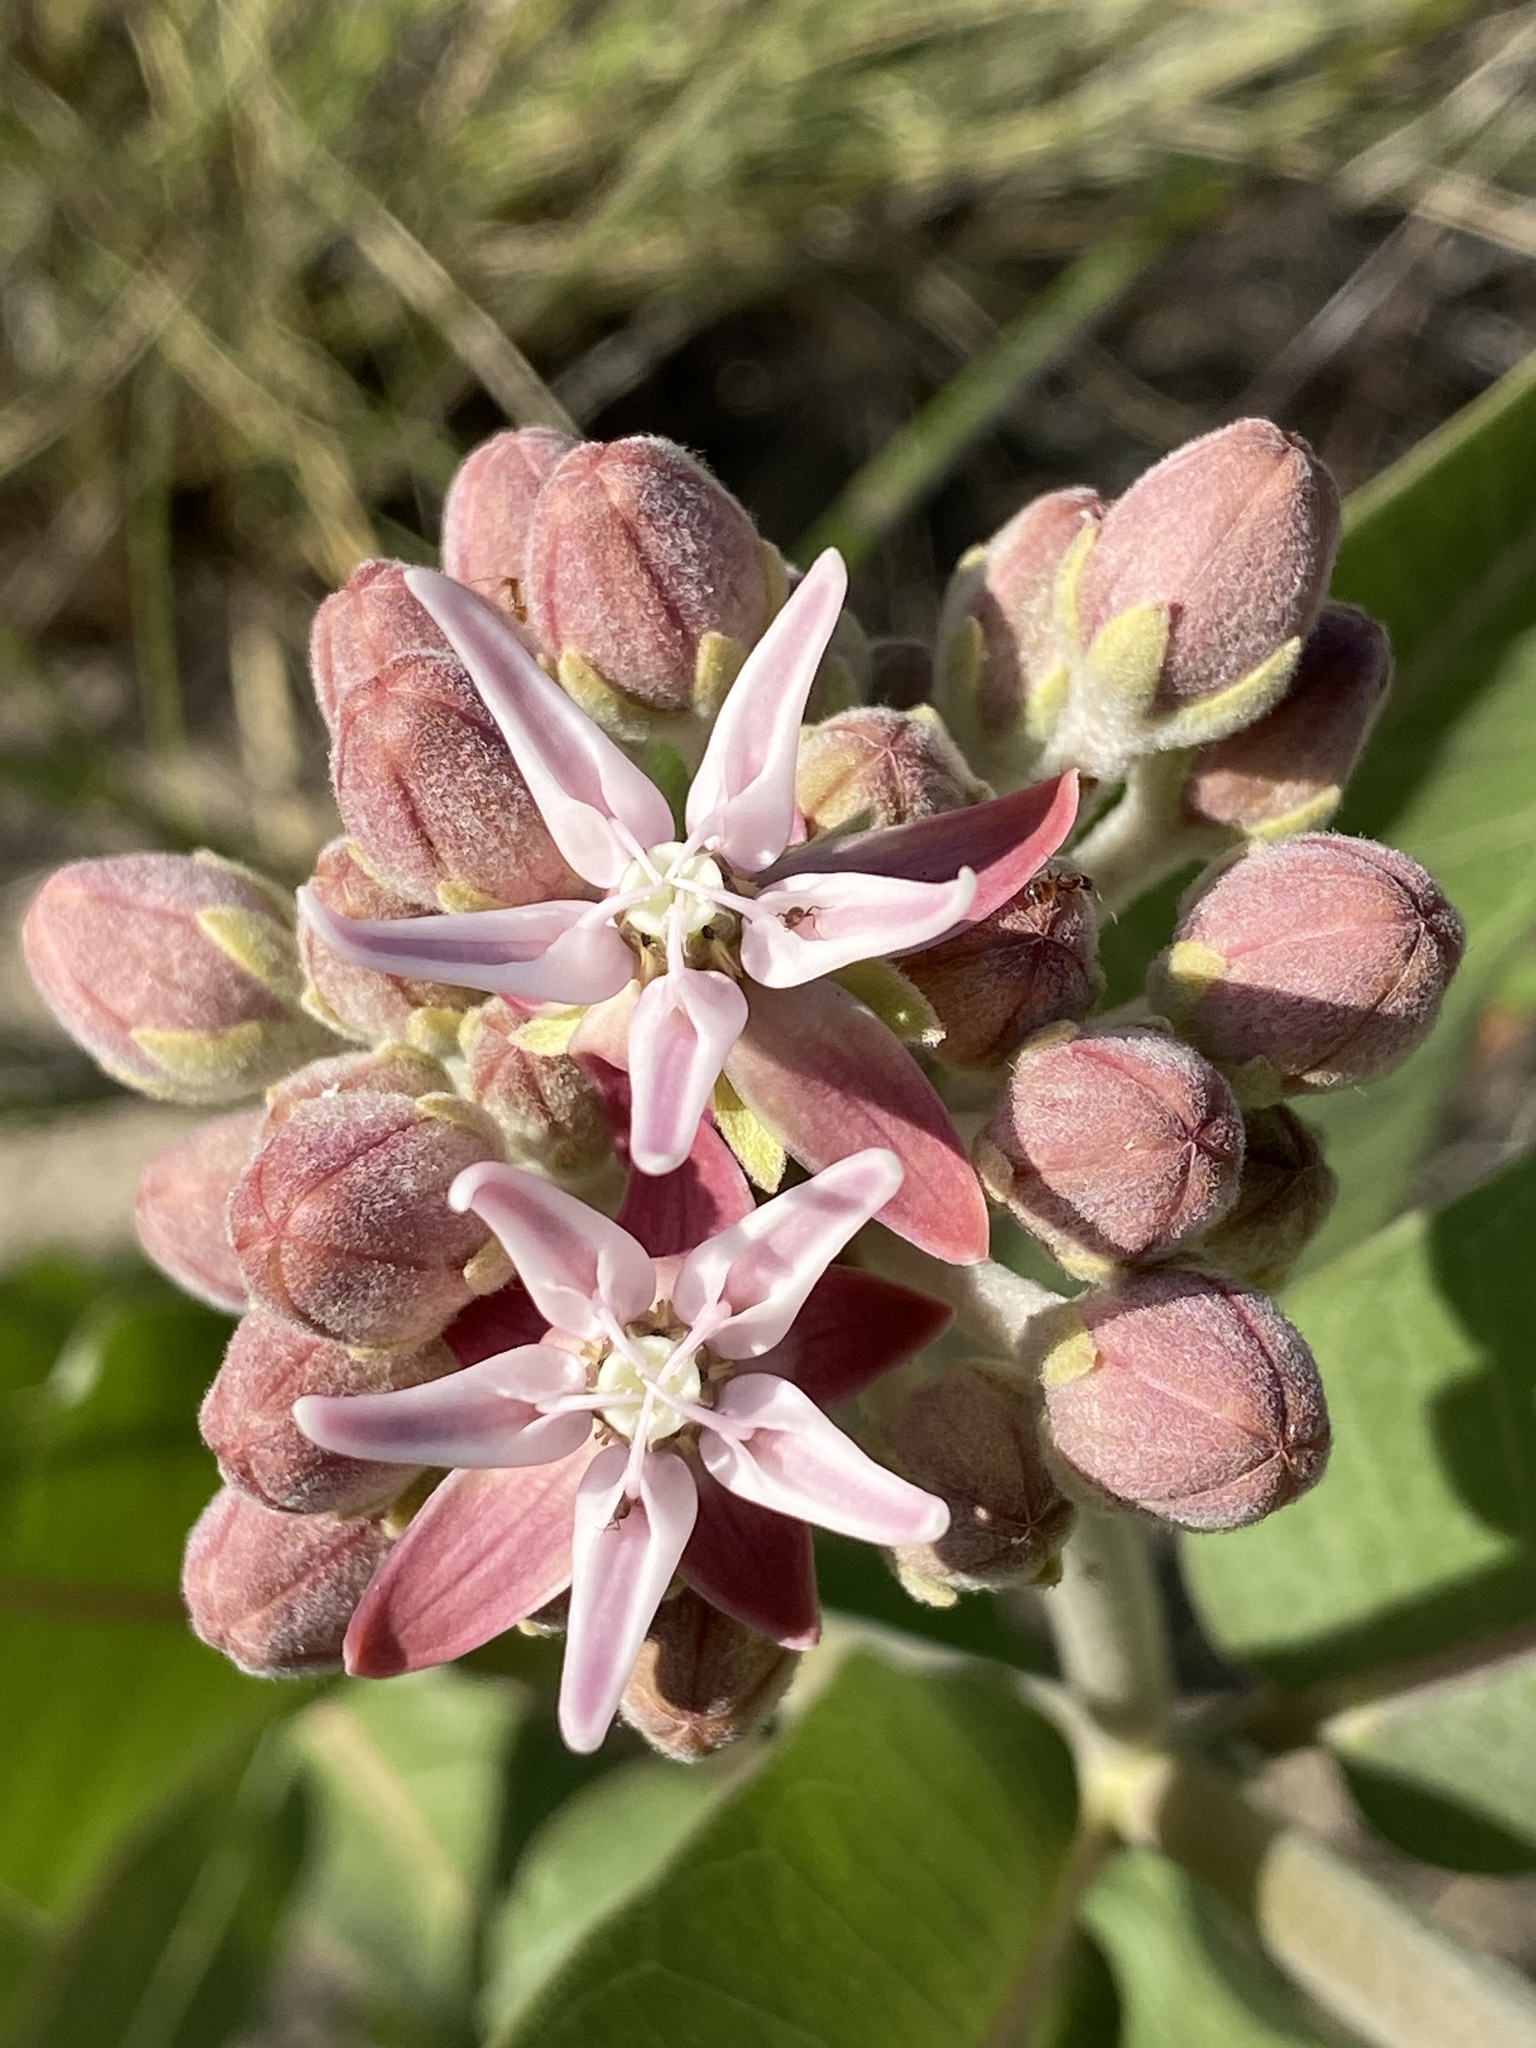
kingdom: Plantae
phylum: Tracheophyta
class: Magnoliopsida
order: Gentianales
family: Apocynaceae
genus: Asclepias
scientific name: Asclepias speciosa
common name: Showy milkweed
